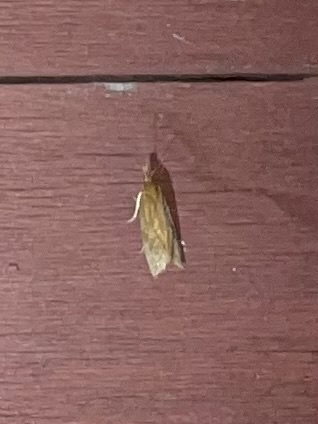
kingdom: Animalia
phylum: Arthropoda
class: Insecta
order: Lepidoptera
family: Tortricidae
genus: Aethes
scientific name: Aethes biscana
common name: Reddish aethes
